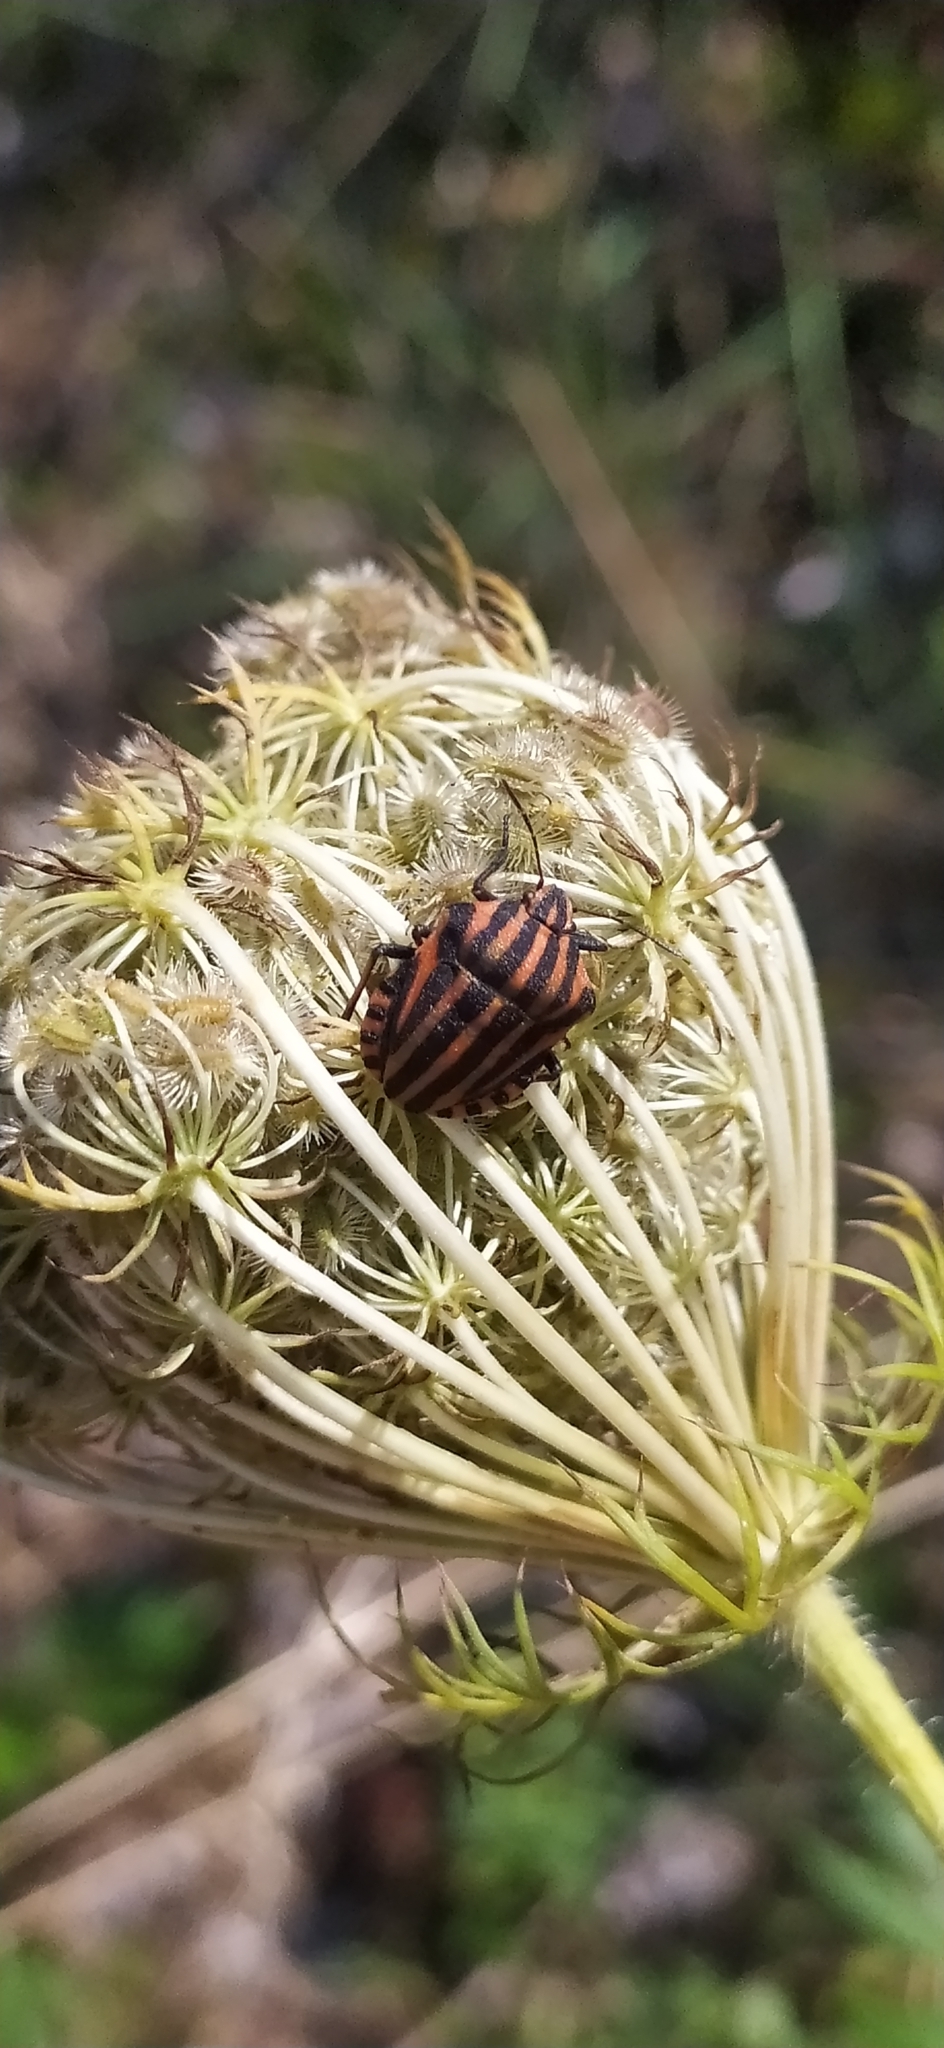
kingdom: Animalia
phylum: Arthropoda
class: Insecta
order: Hemiptera
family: Pentatomidae
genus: Graphosoma
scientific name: Graphosoma italicum
